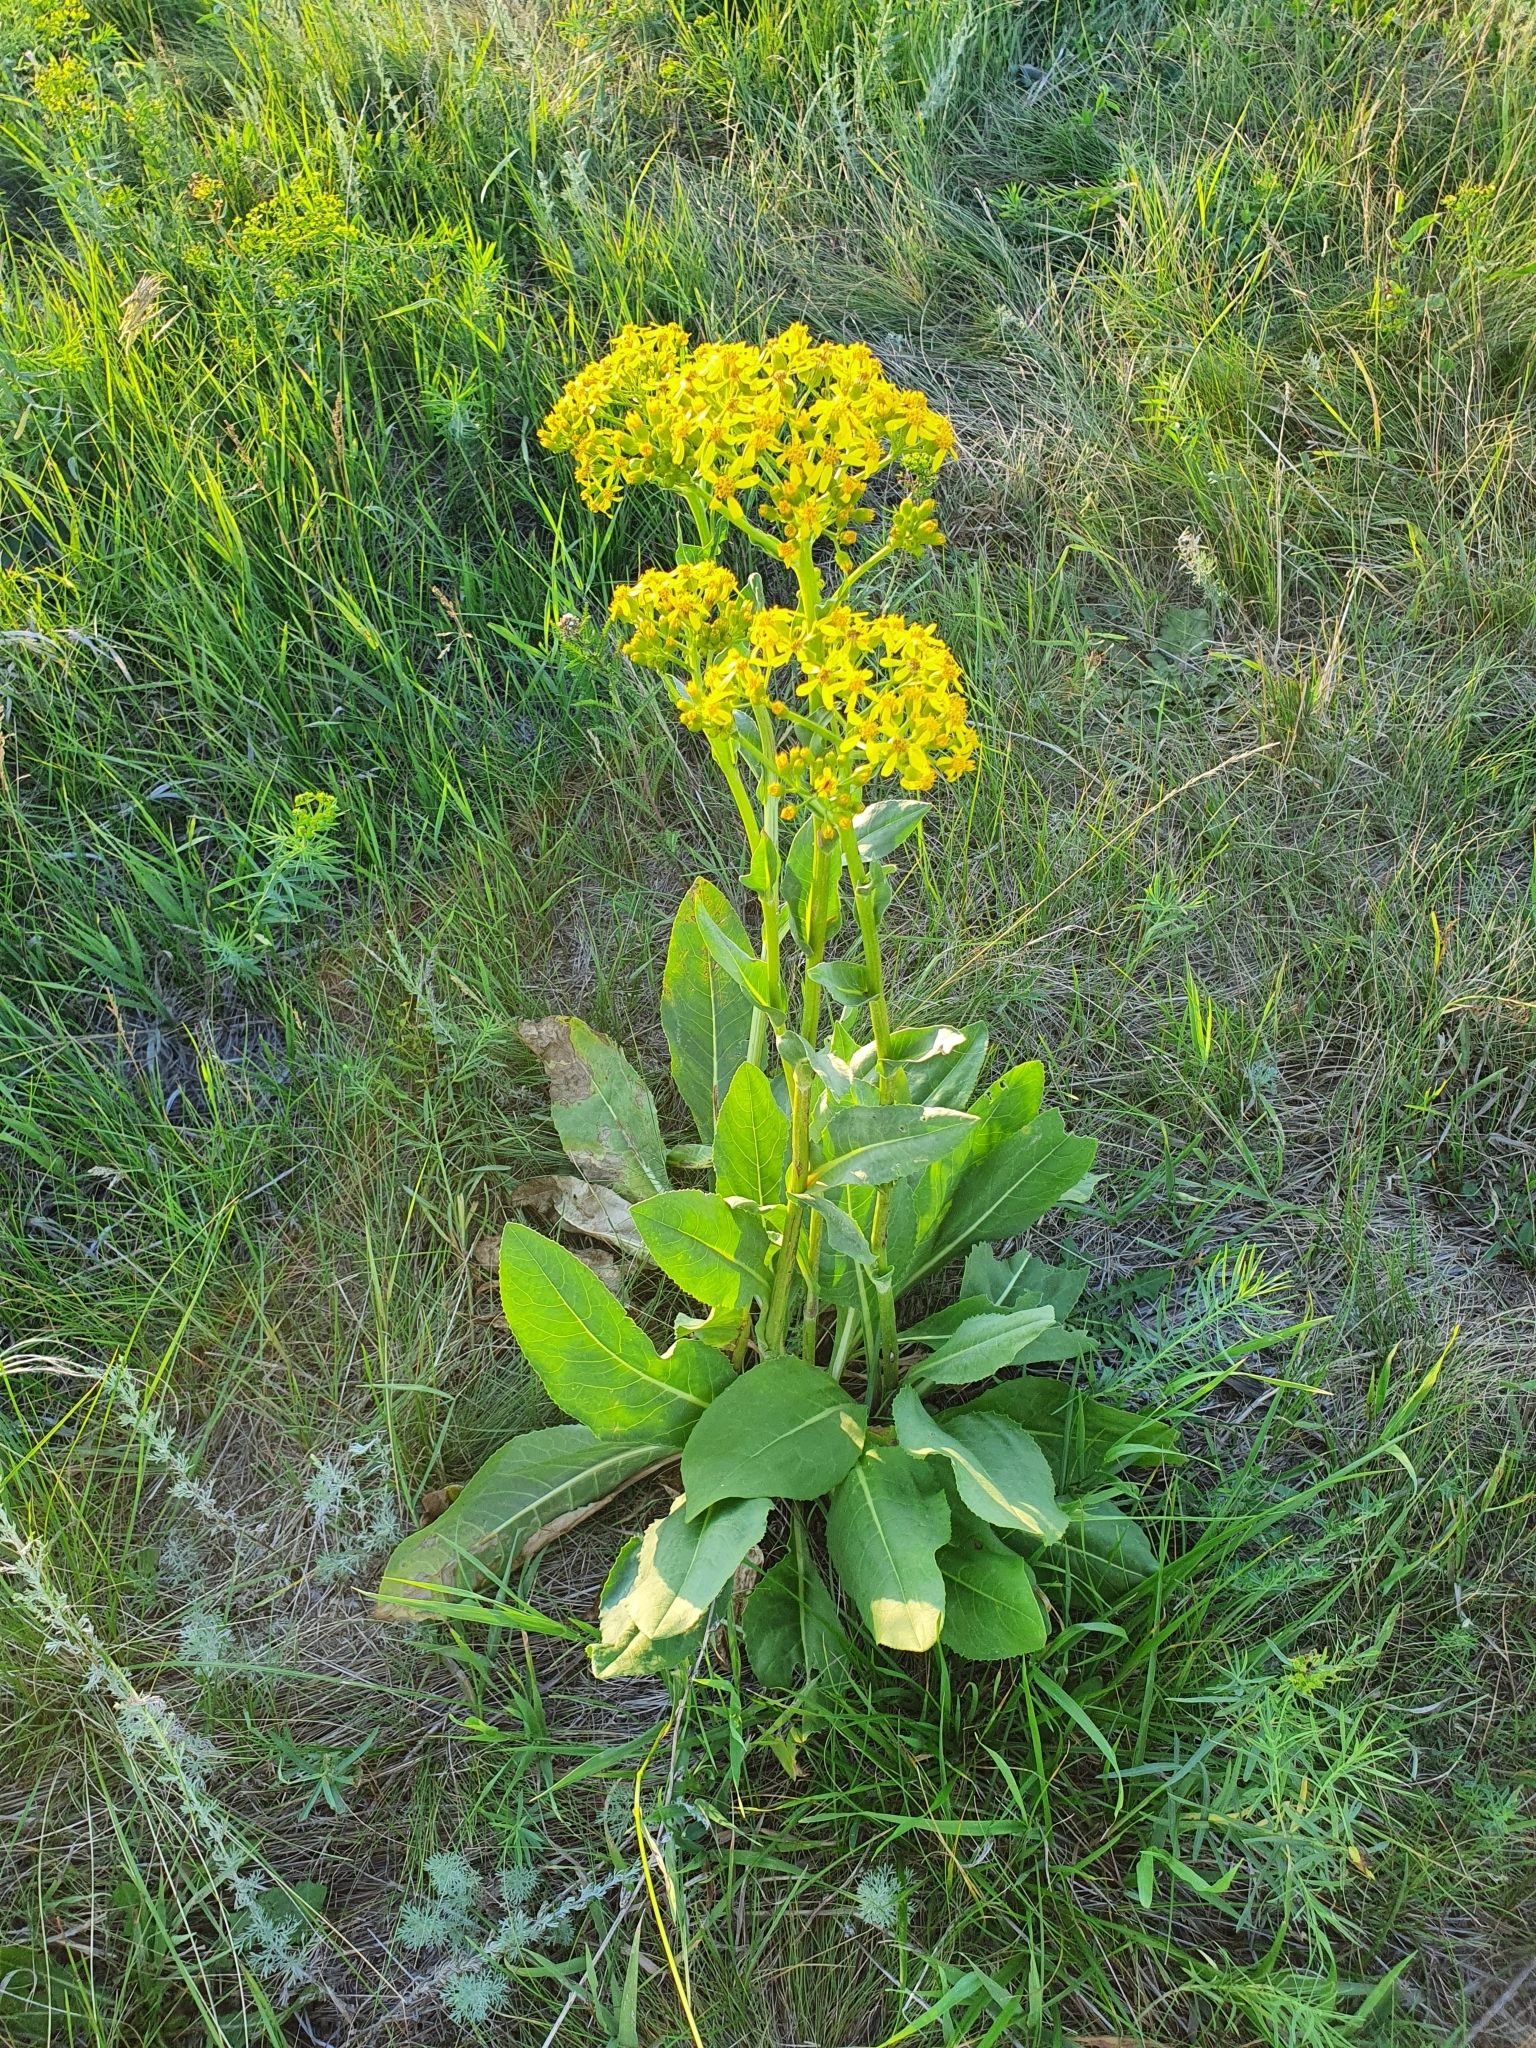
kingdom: Plantae
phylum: Tracheophyta
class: Magnoliopsida
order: Asterales
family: Asteraceae
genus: Senecio
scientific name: Senecio doria
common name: Golden ragwort
